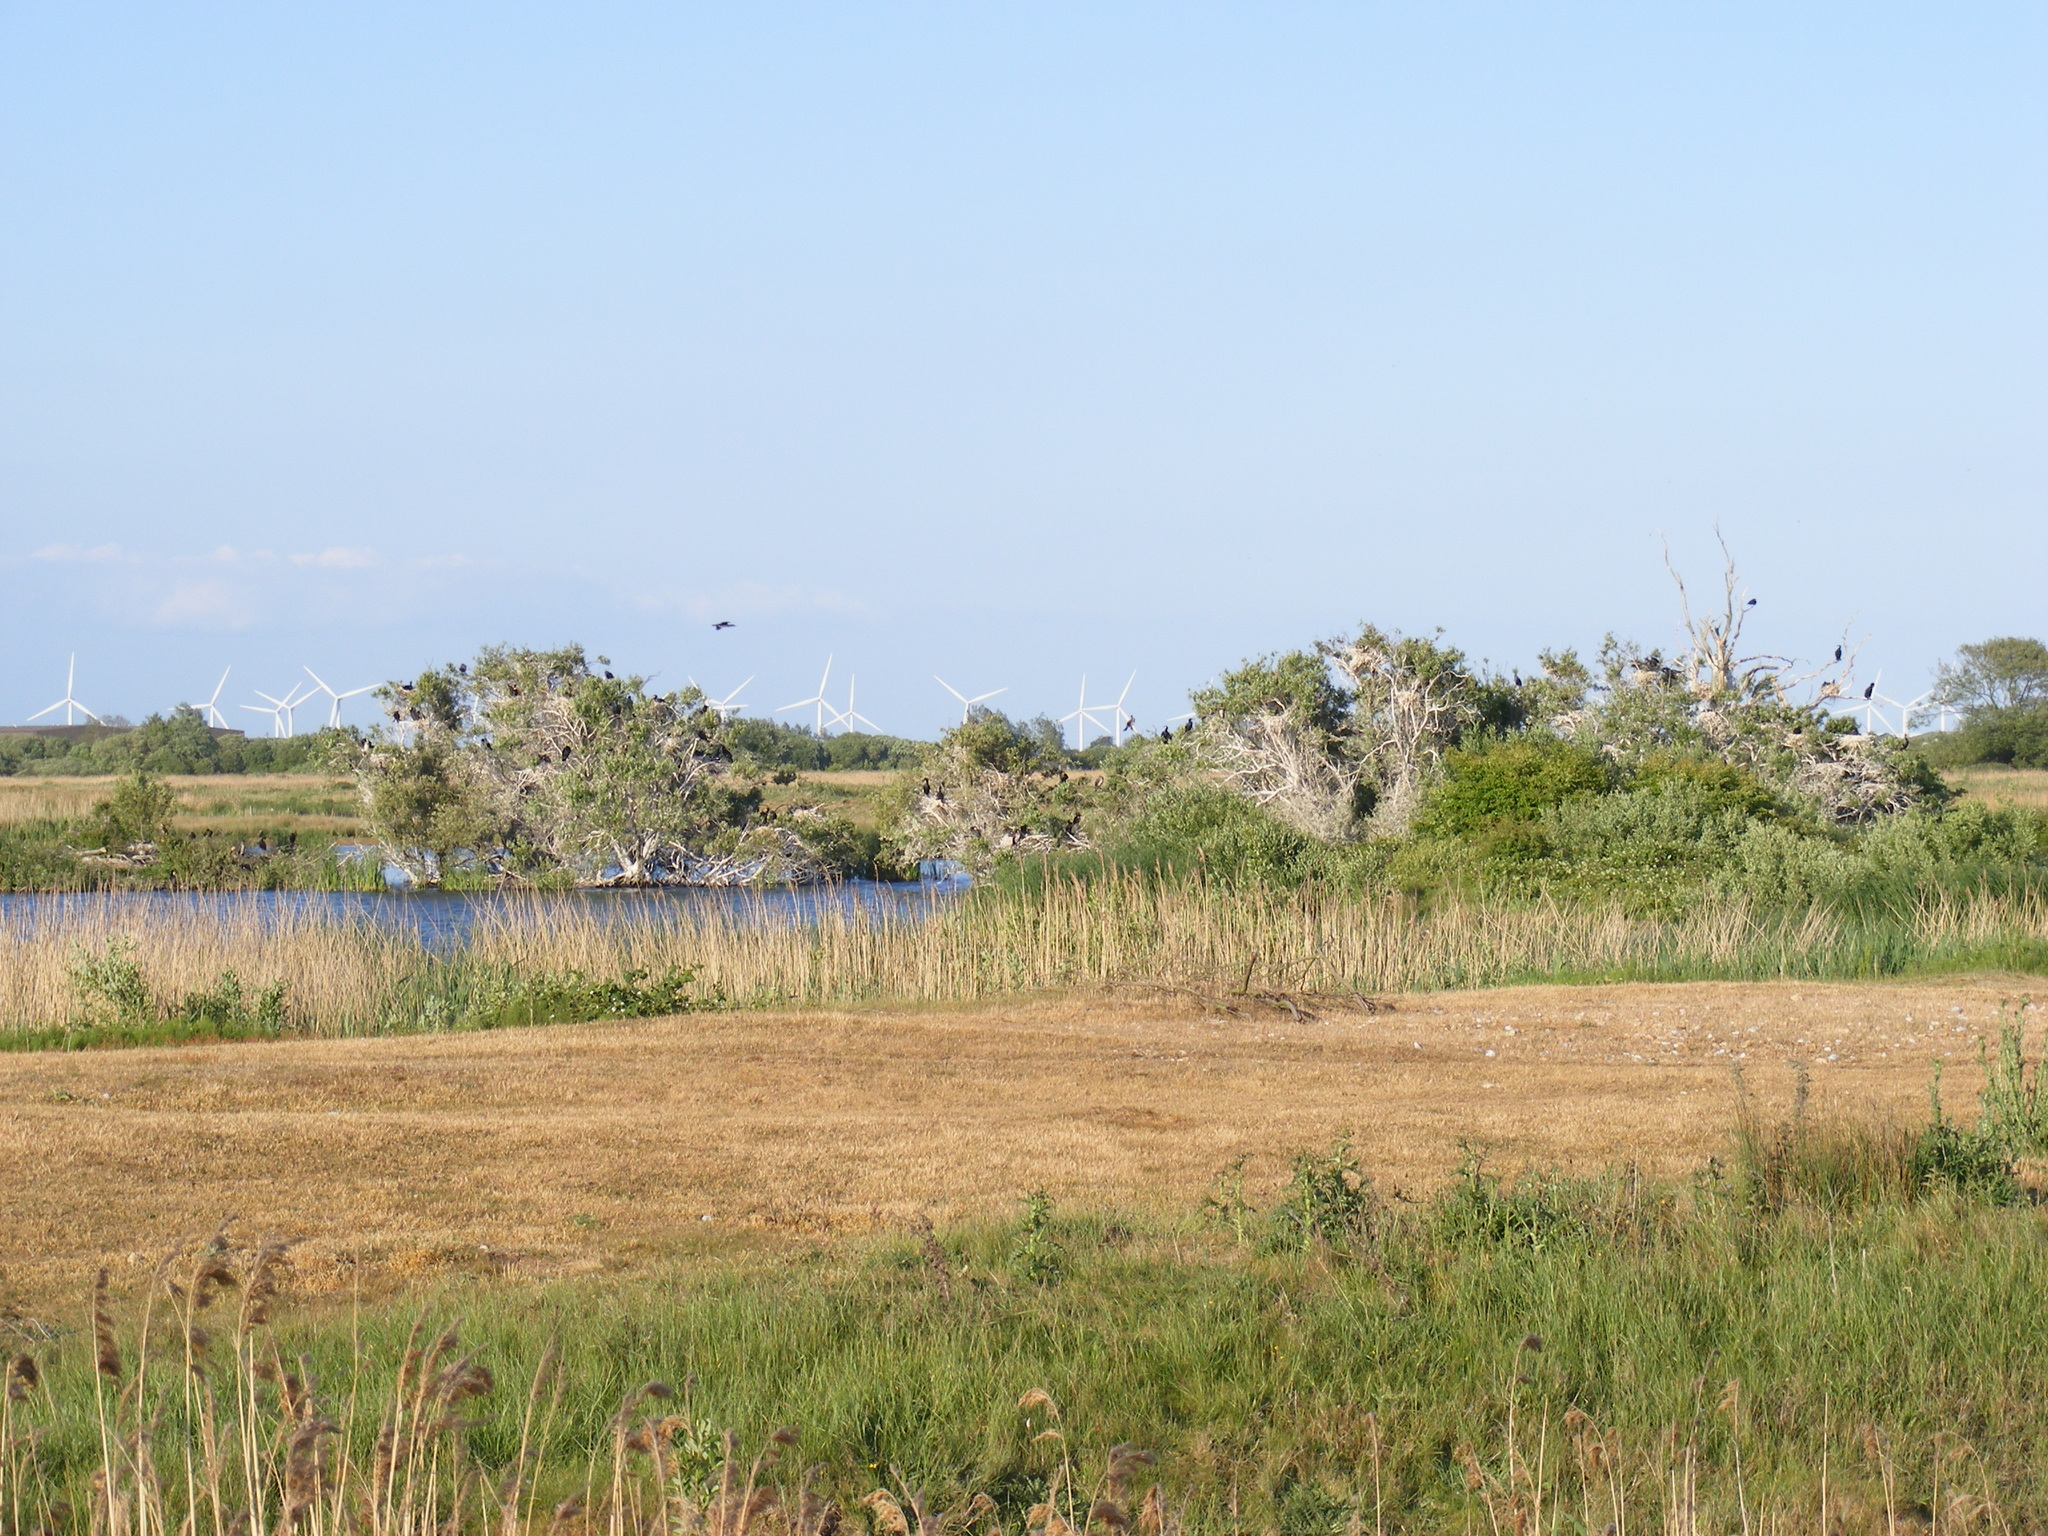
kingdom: Animalia
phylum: Chordata
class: Aves
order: Suliformes
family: Phalacrocoracidae
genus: Phalacrocorax
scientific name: Phalacrocorax carbo
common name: Great cormorant
